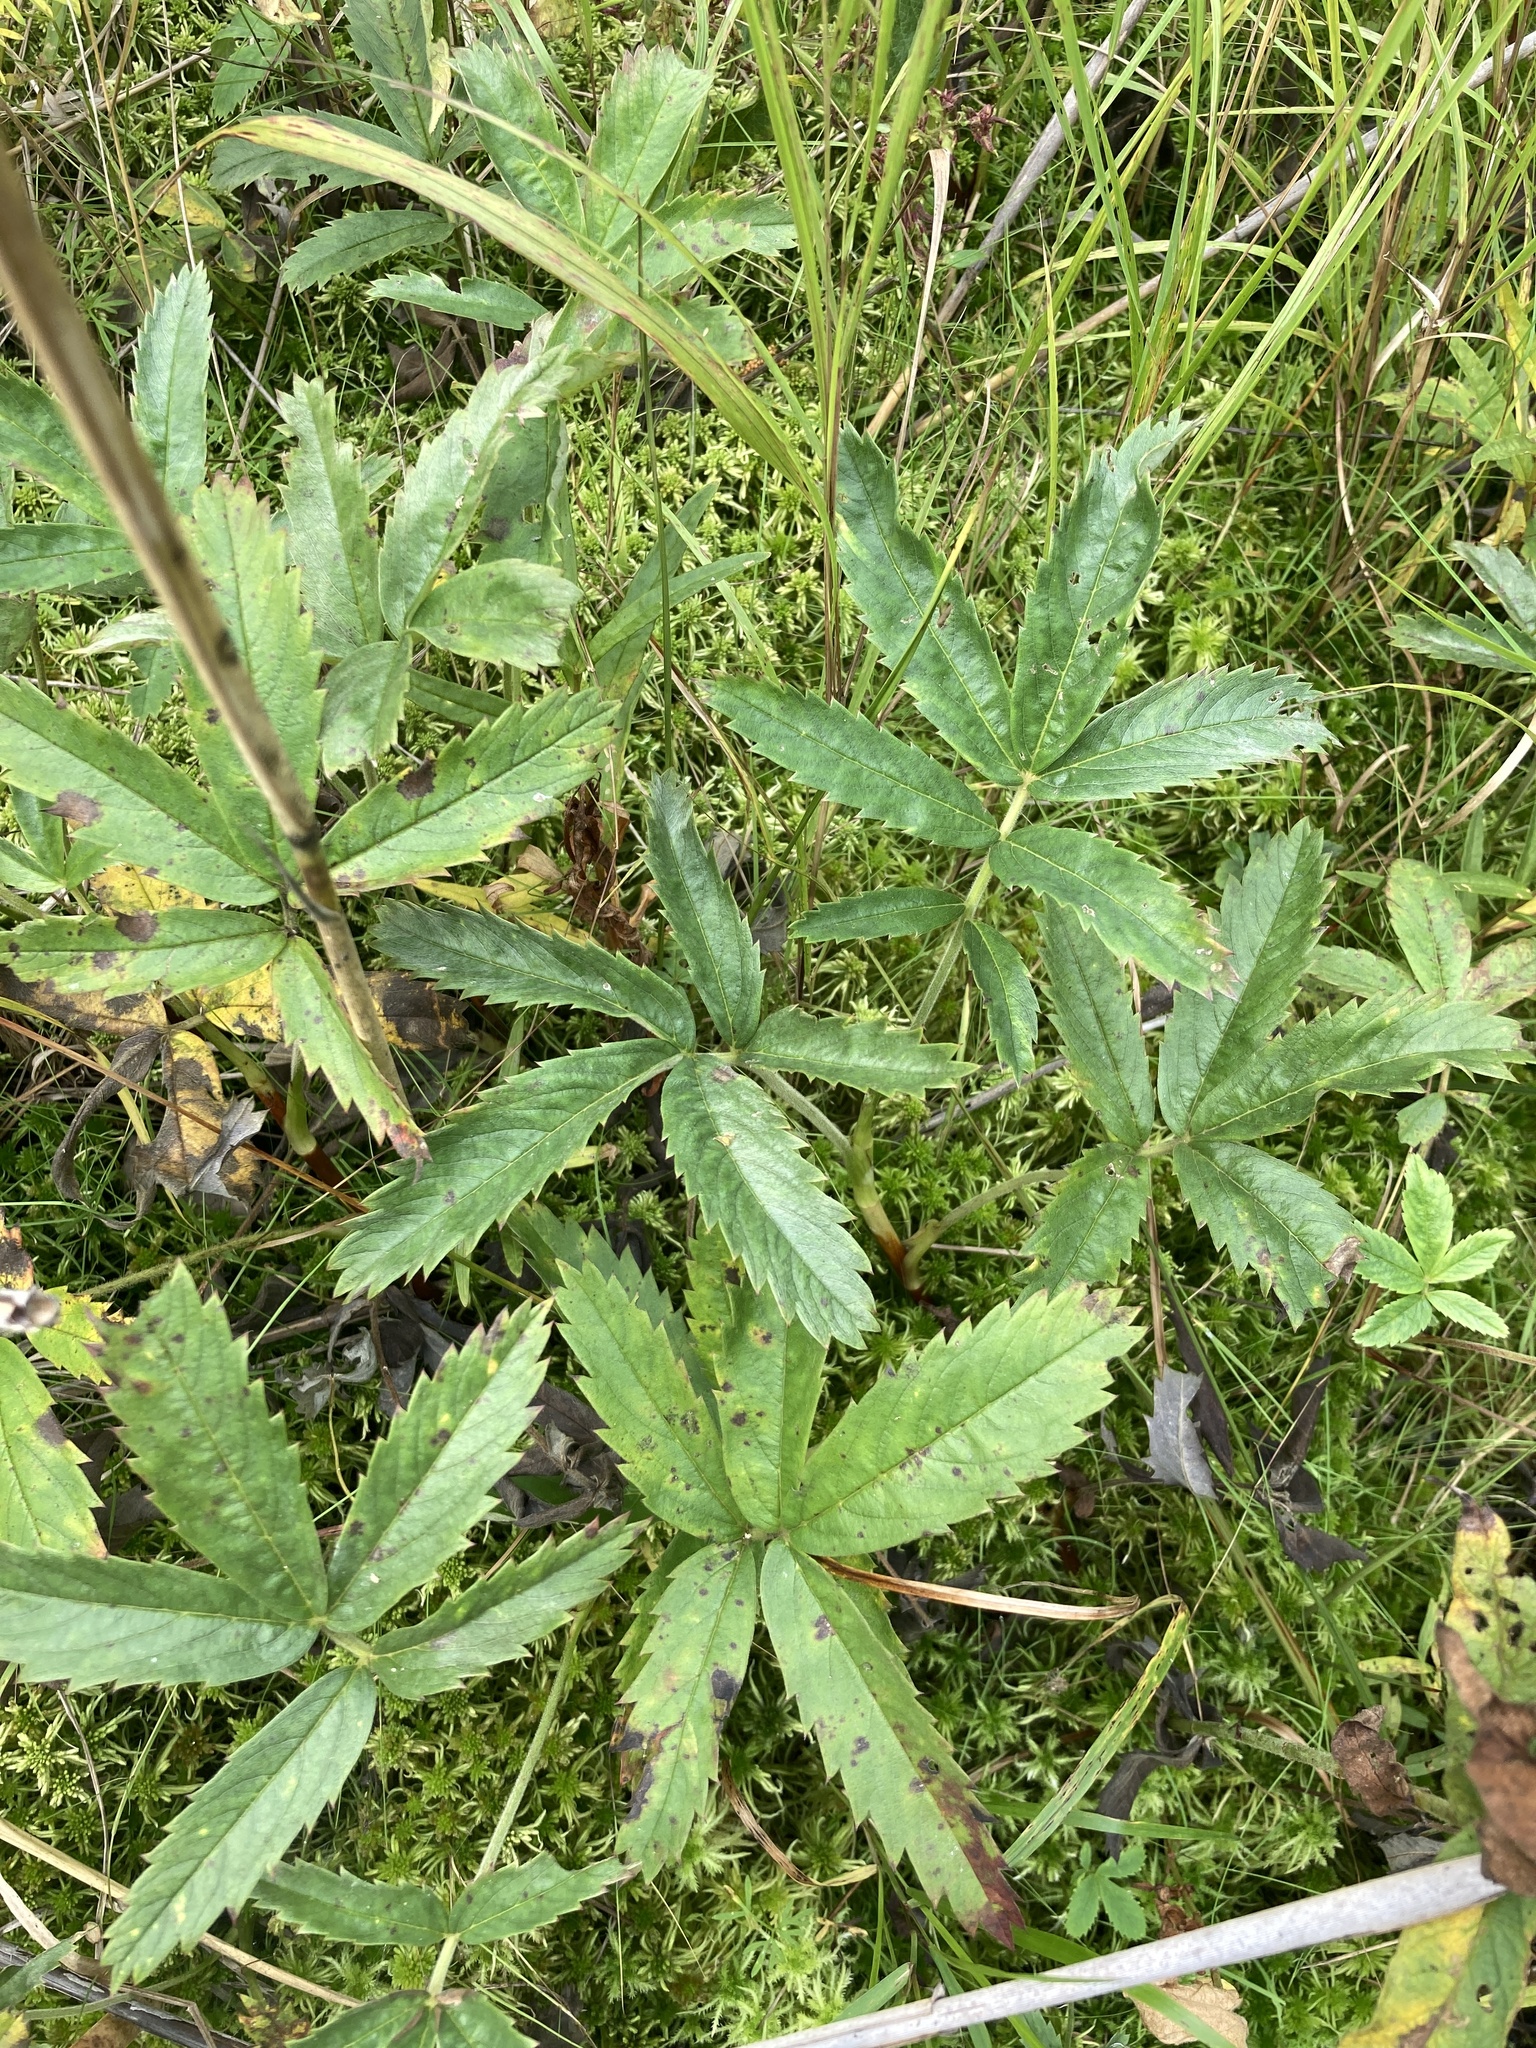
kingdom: Plantae
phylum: Tracheophyta
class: Magnoliopsida
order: Rosales
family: Rosaceae
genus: Comarum
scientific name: Comarum palustre
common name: Marsh cinquefoil
